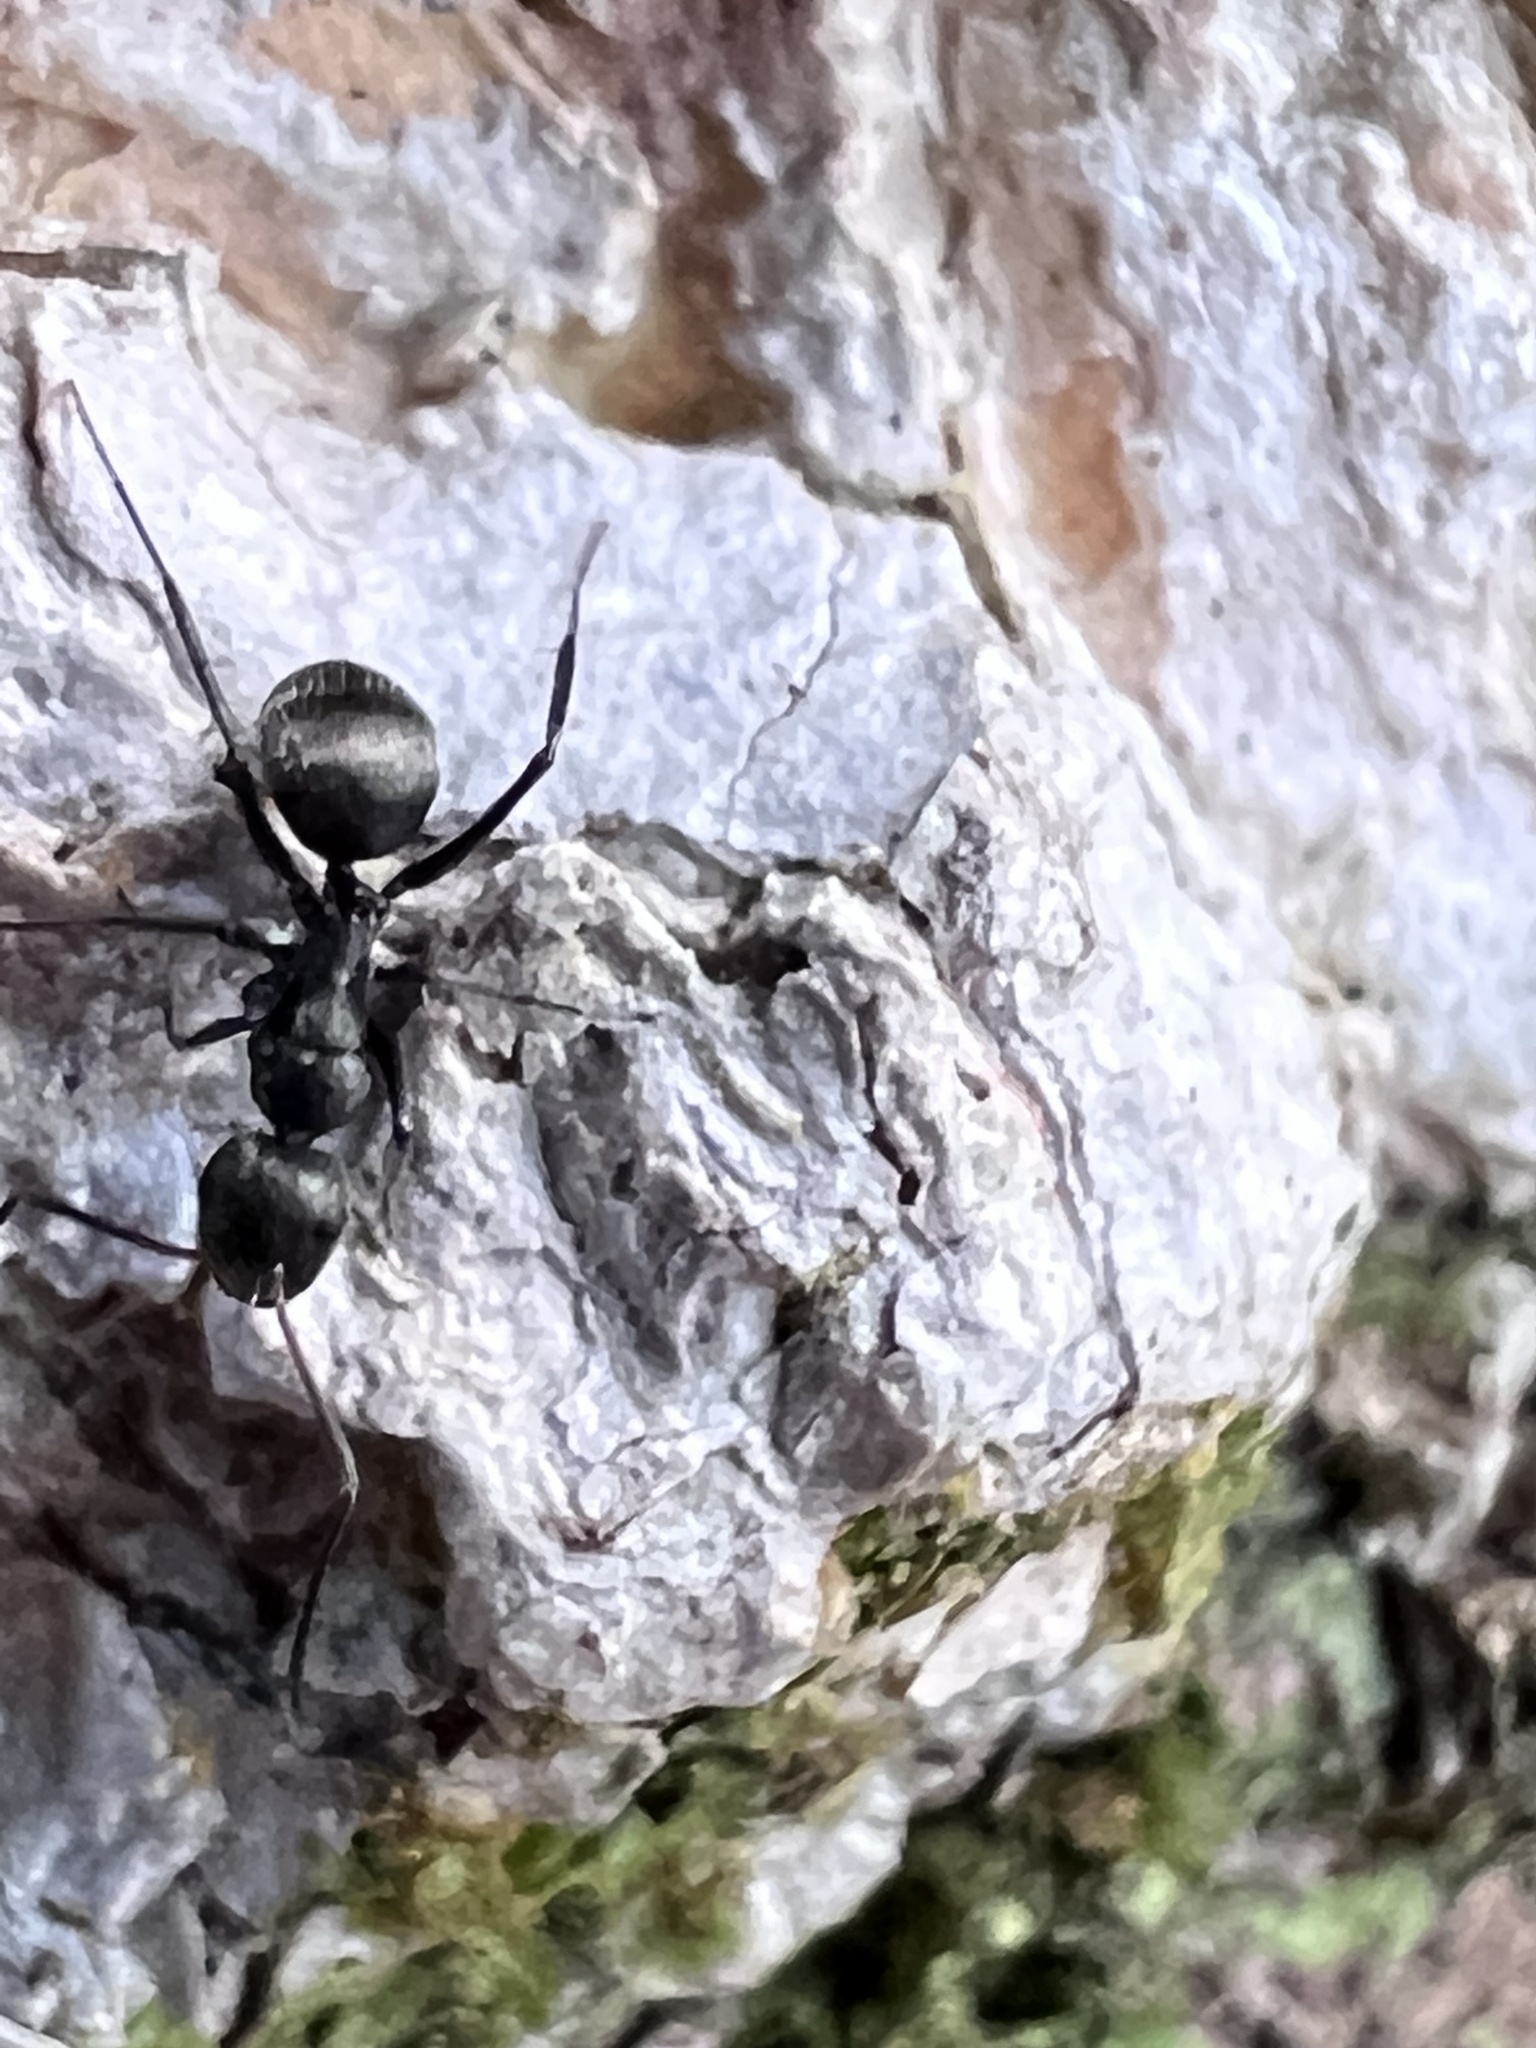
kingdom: Animalia
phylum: Arthropoda
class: Insecta
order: Hymenoptera
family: Formicidae
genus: Camponotus
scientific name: Camponotus novogranadensis
